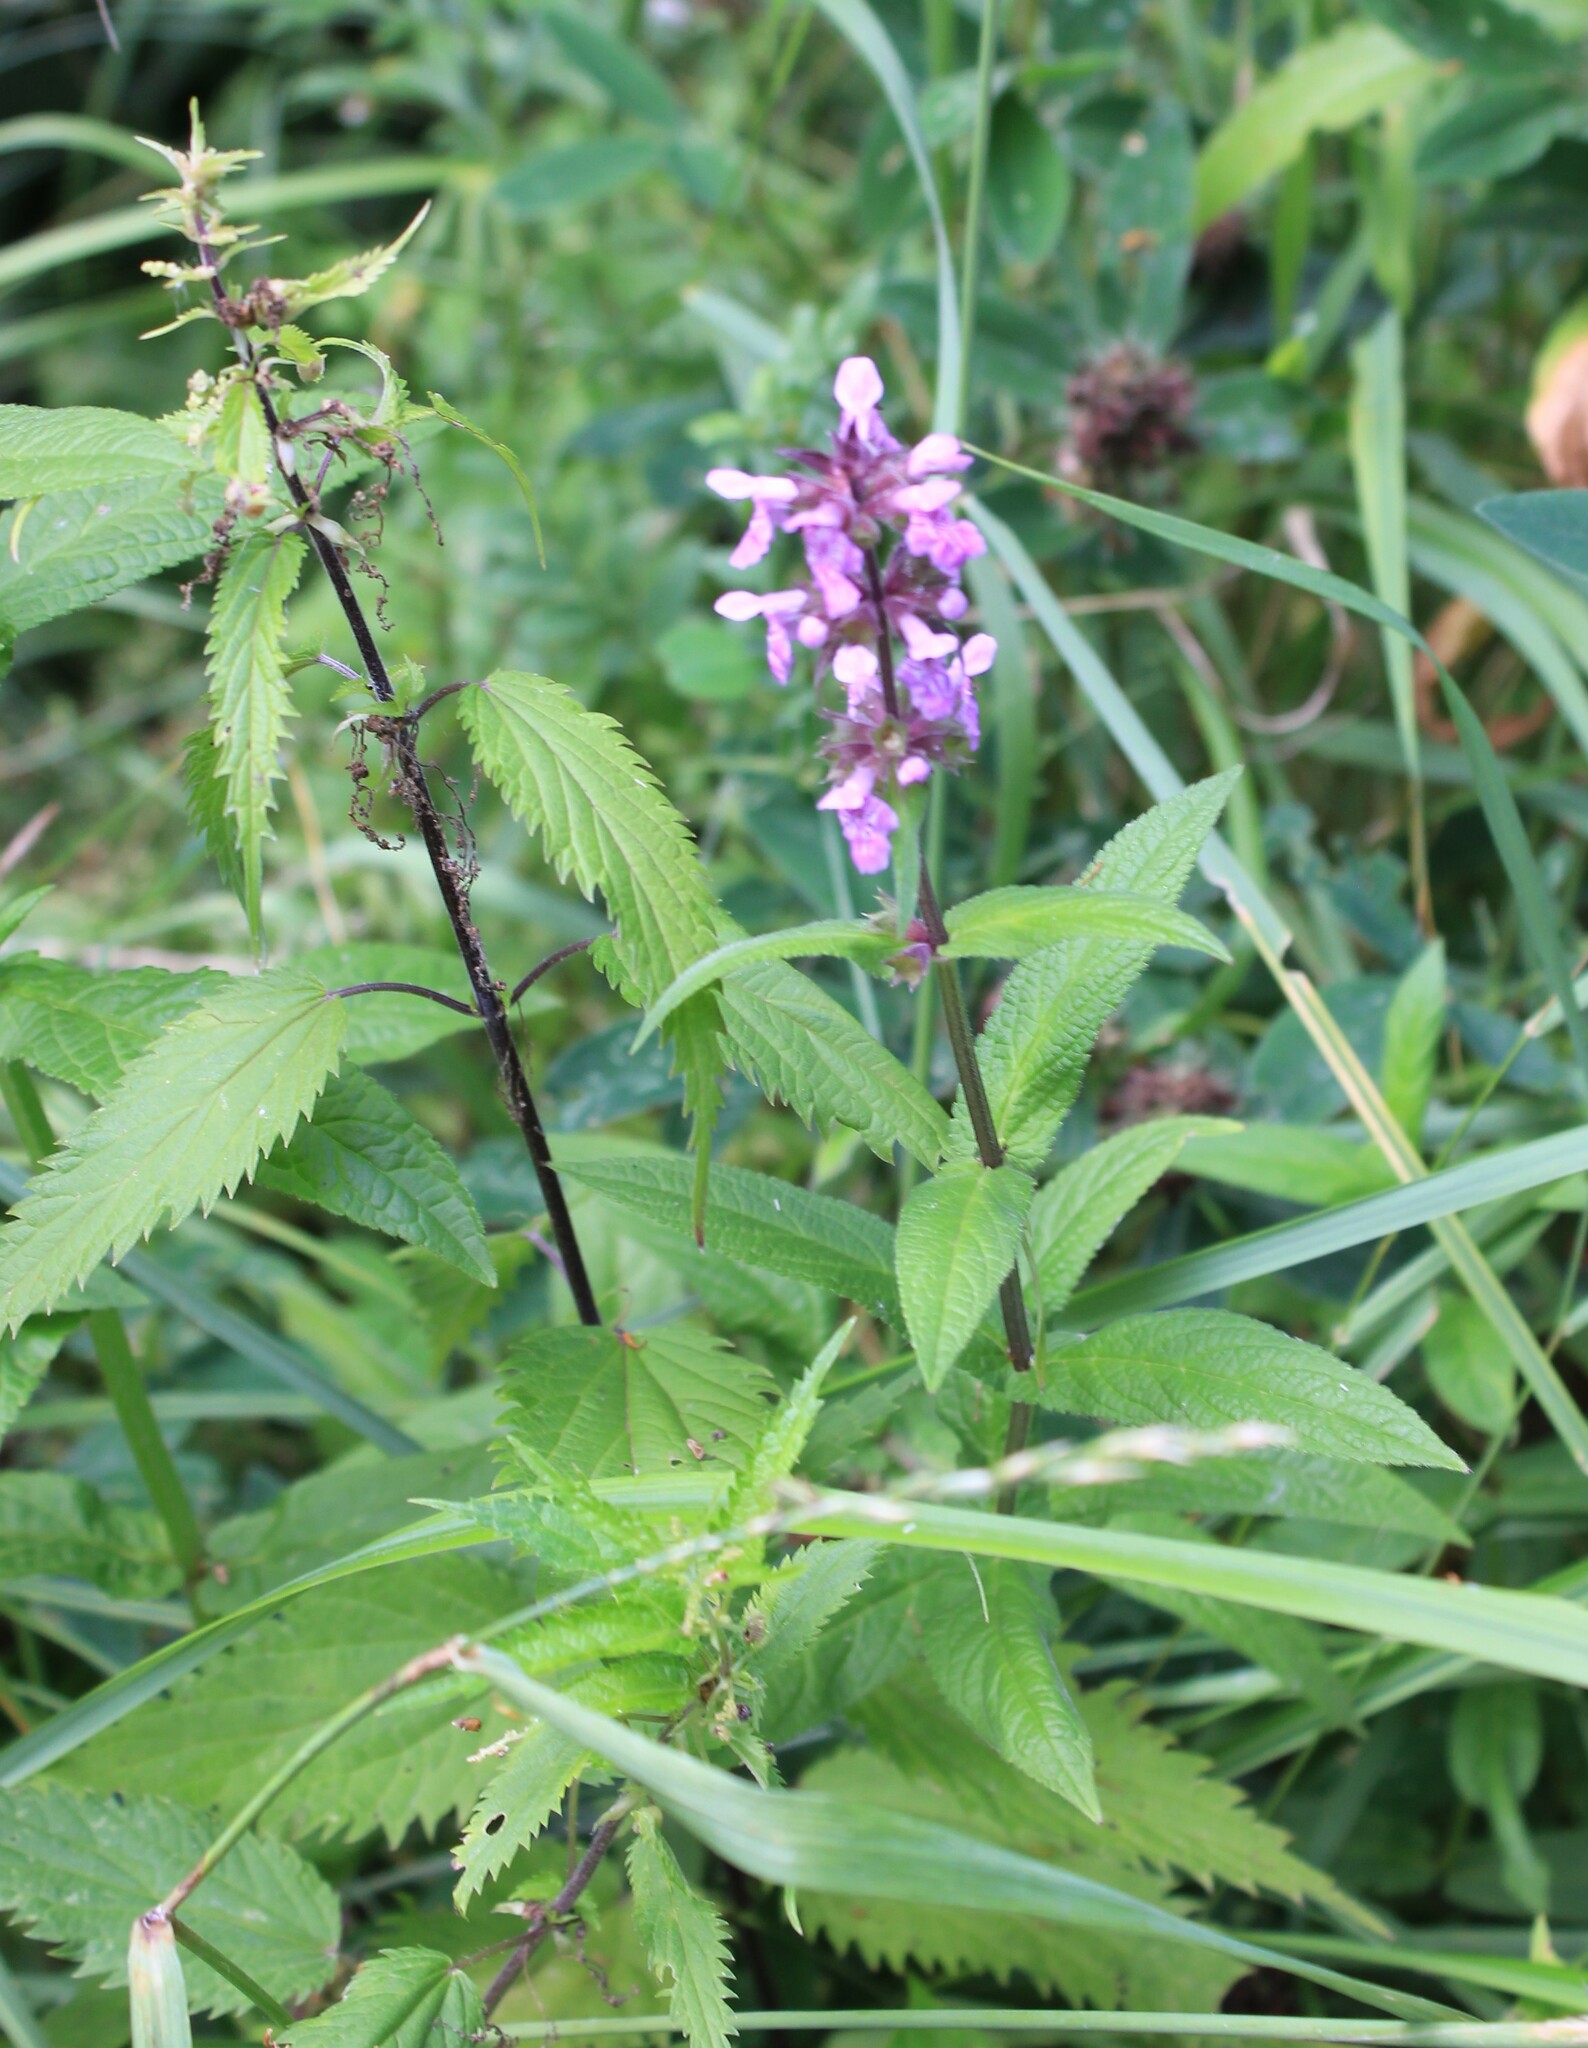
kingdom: Plantae
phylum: Tracheophyta
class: Magnoliopsida
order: Lamiales
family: Lamiaceae
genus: Stachys
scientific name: Stachys palustris
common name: Marsh woundwort
